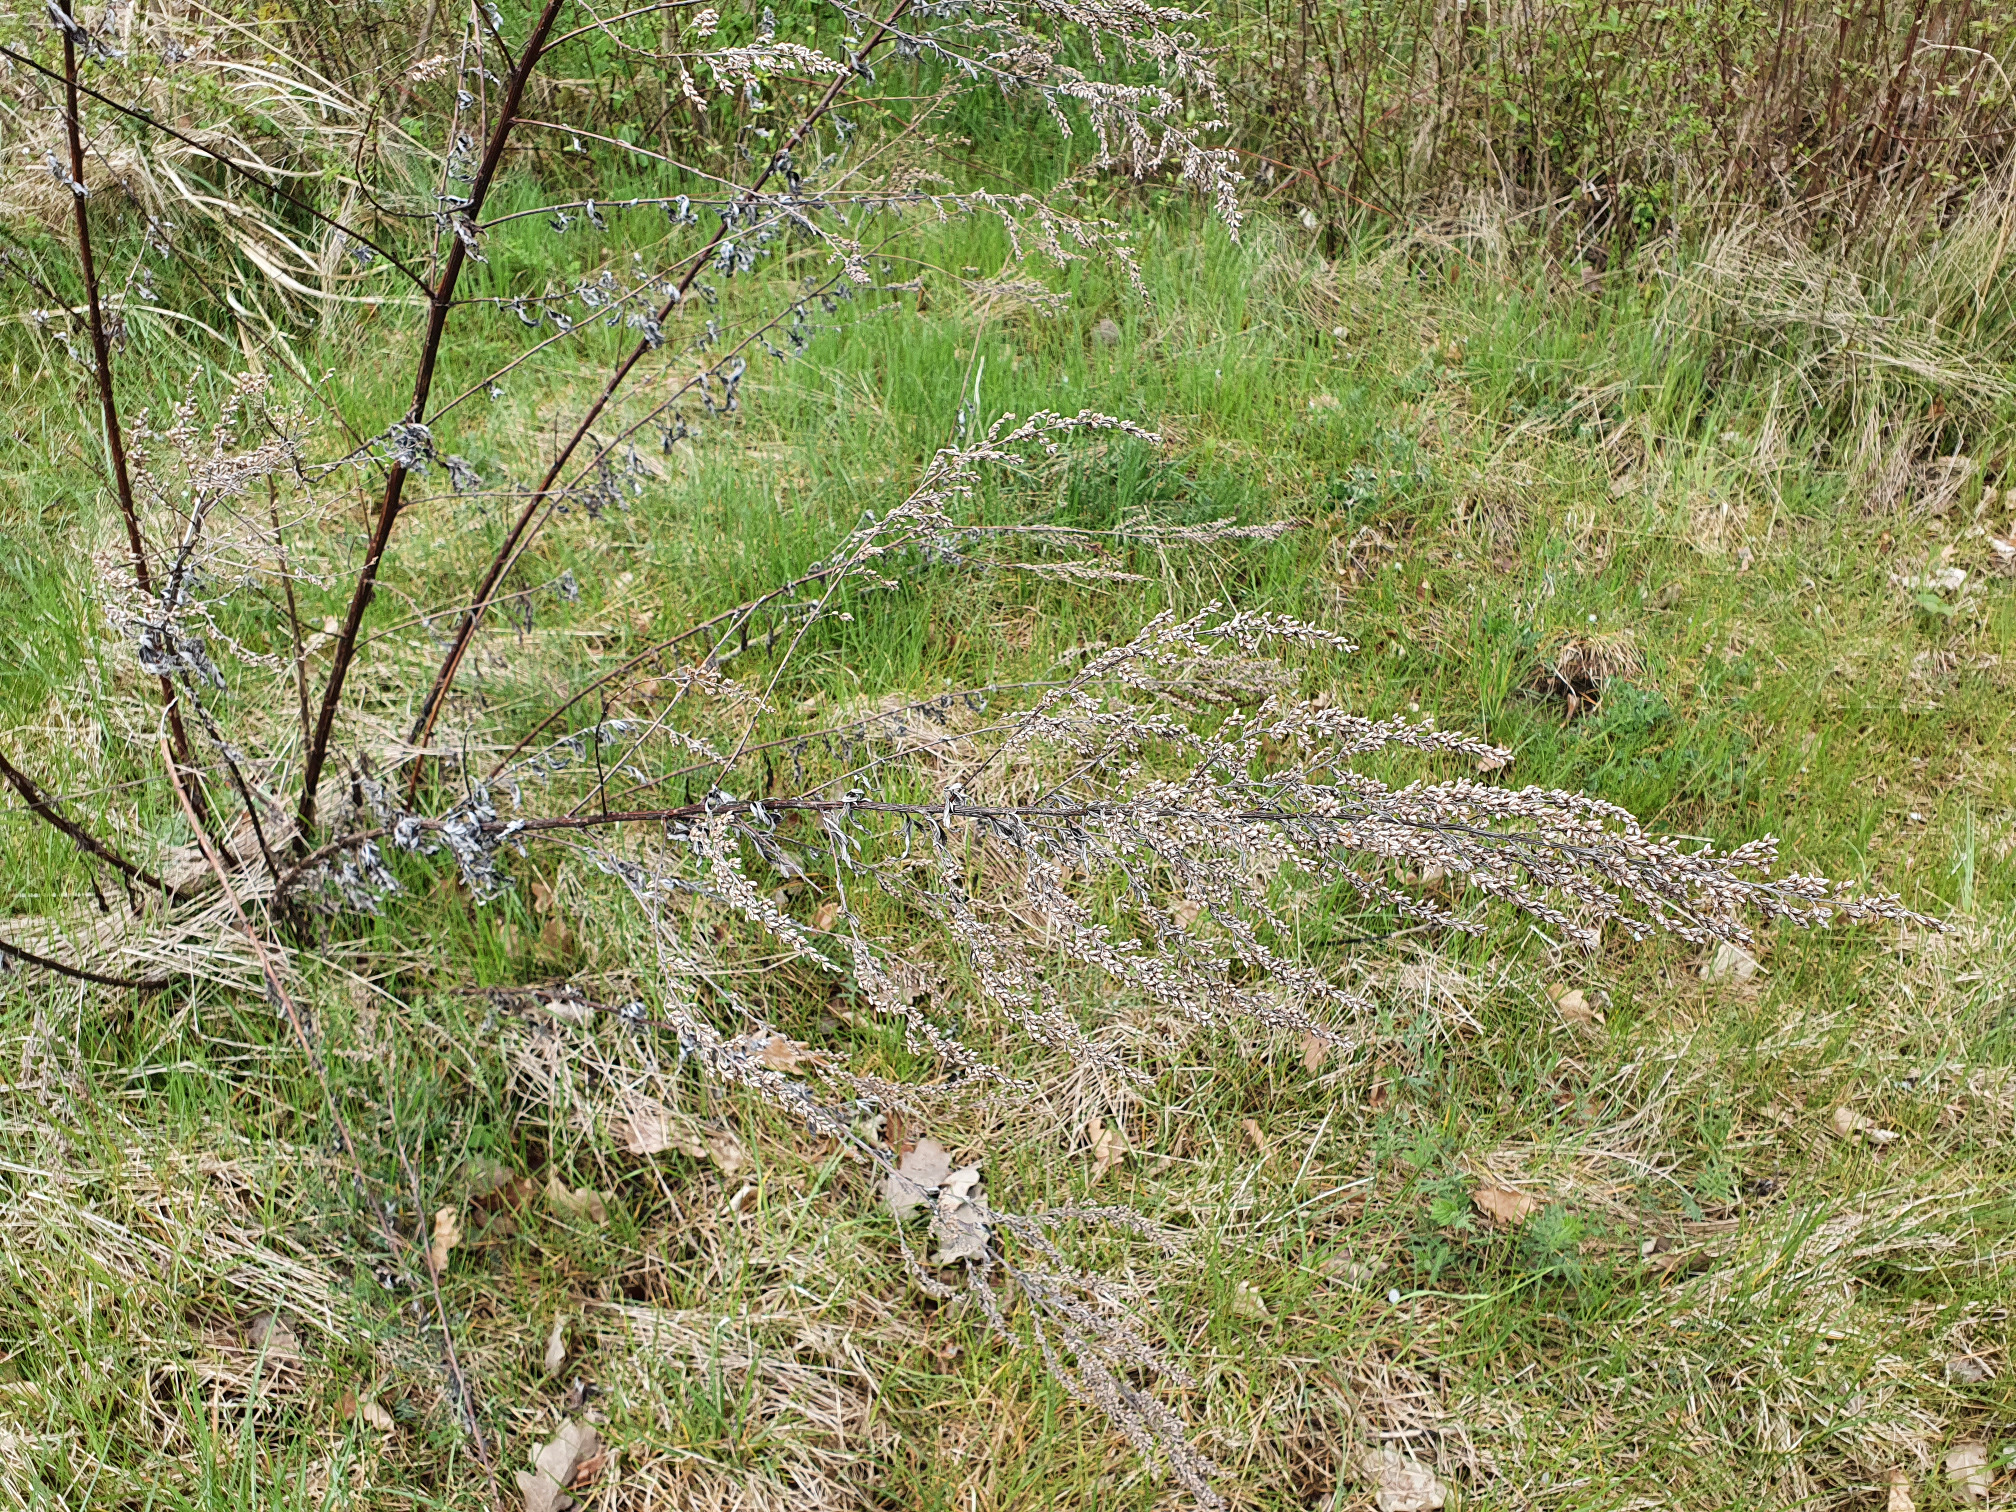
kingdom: Plantae
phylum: Tracheophyta
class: Magnoliopsida
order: Asterales
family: Asteraceae
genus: Artemisia
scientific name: Artemisia vulgaris
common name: Mugwort
